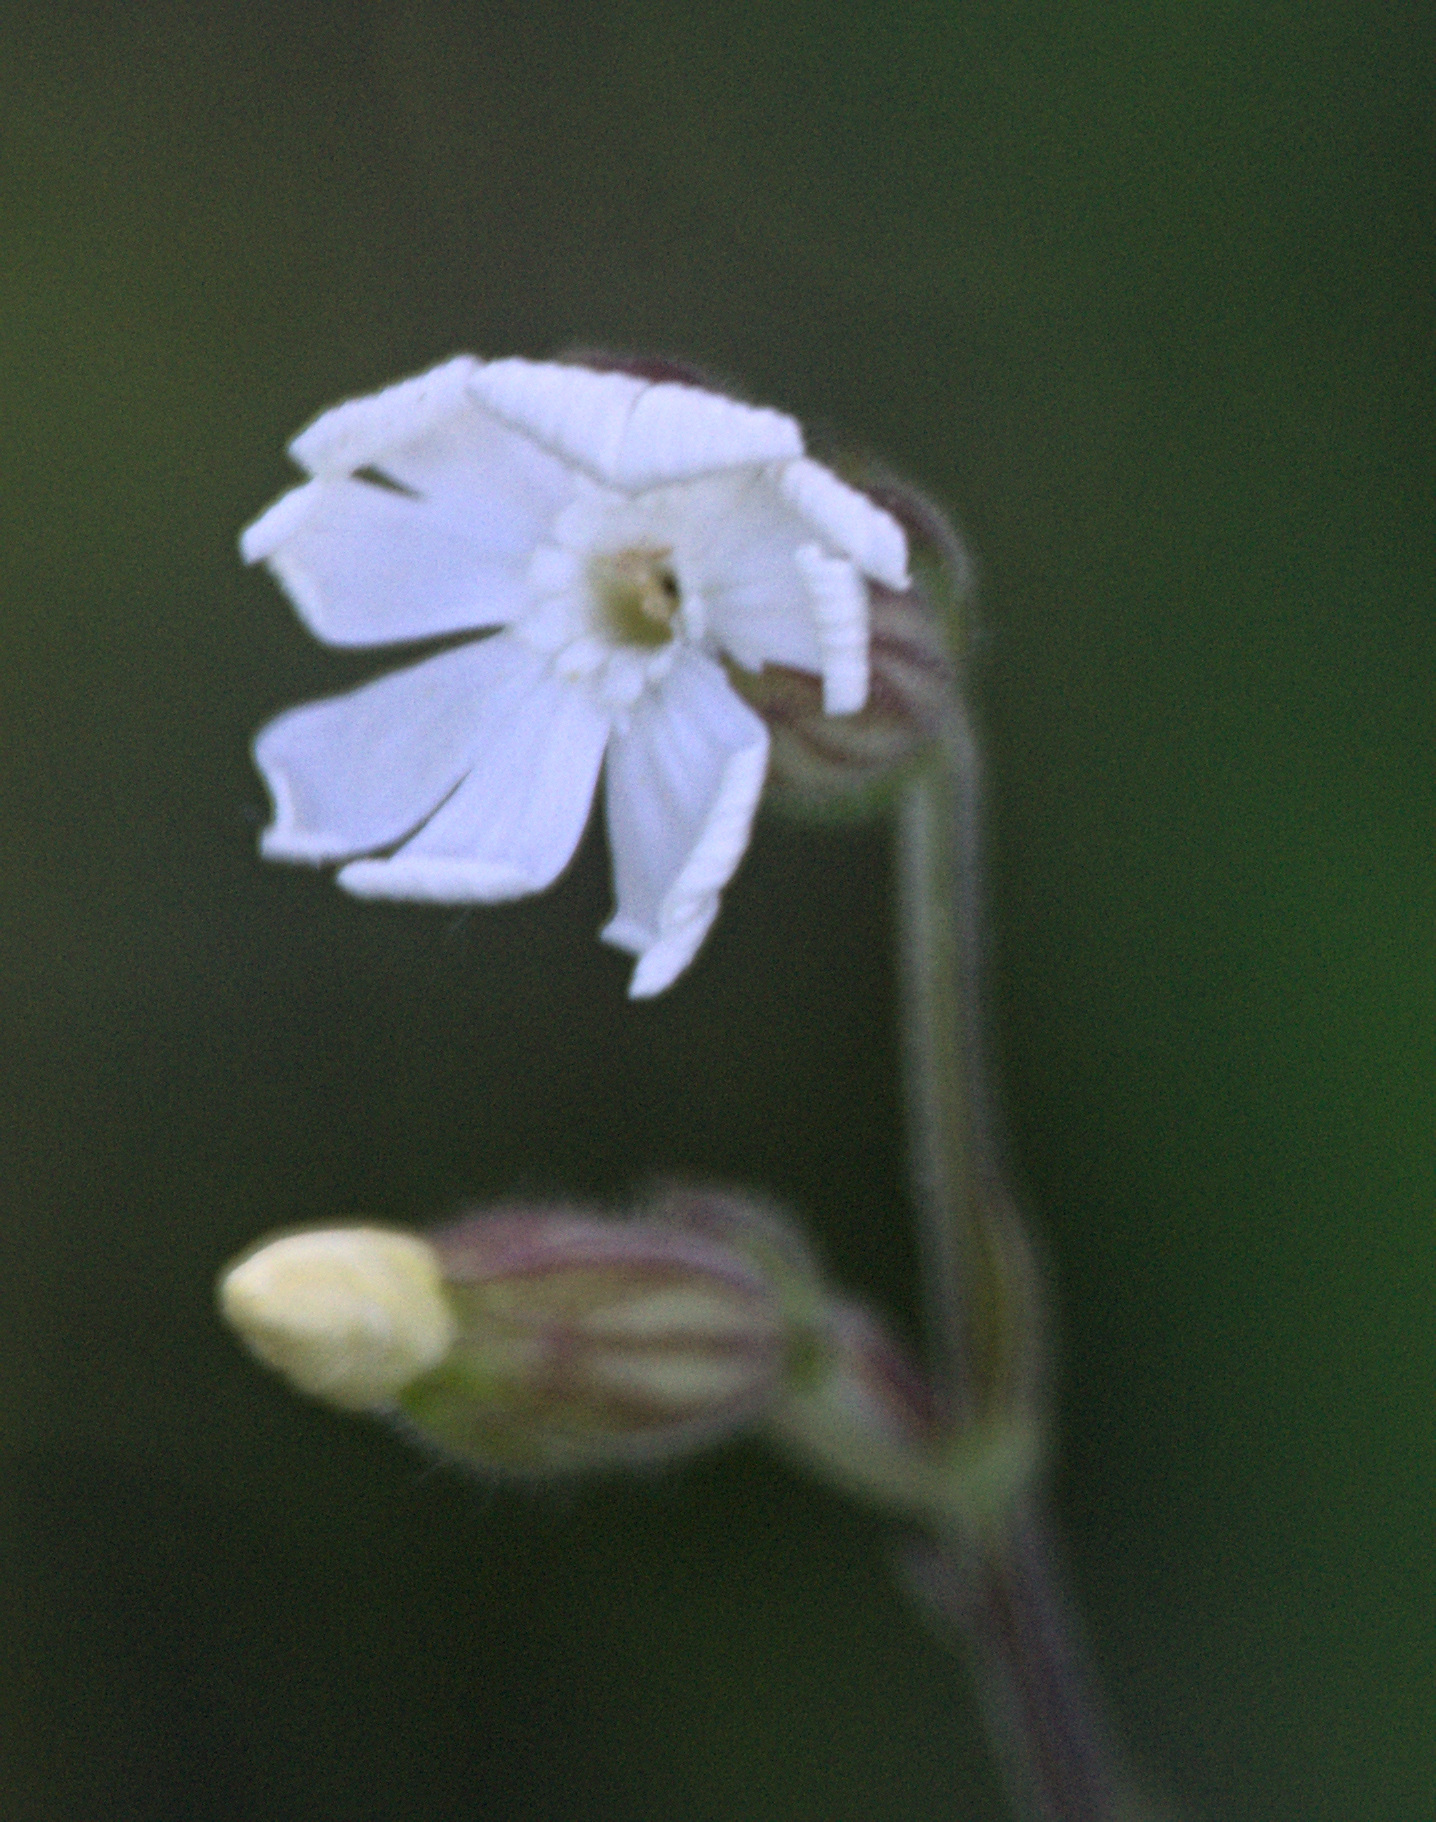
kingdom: Plantae
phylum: Tracheophyta
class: Magnoliopsida
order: Caryophyllales
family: Caryophyllaceae
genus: Silene
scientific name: Silene latifolia
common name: White campion
